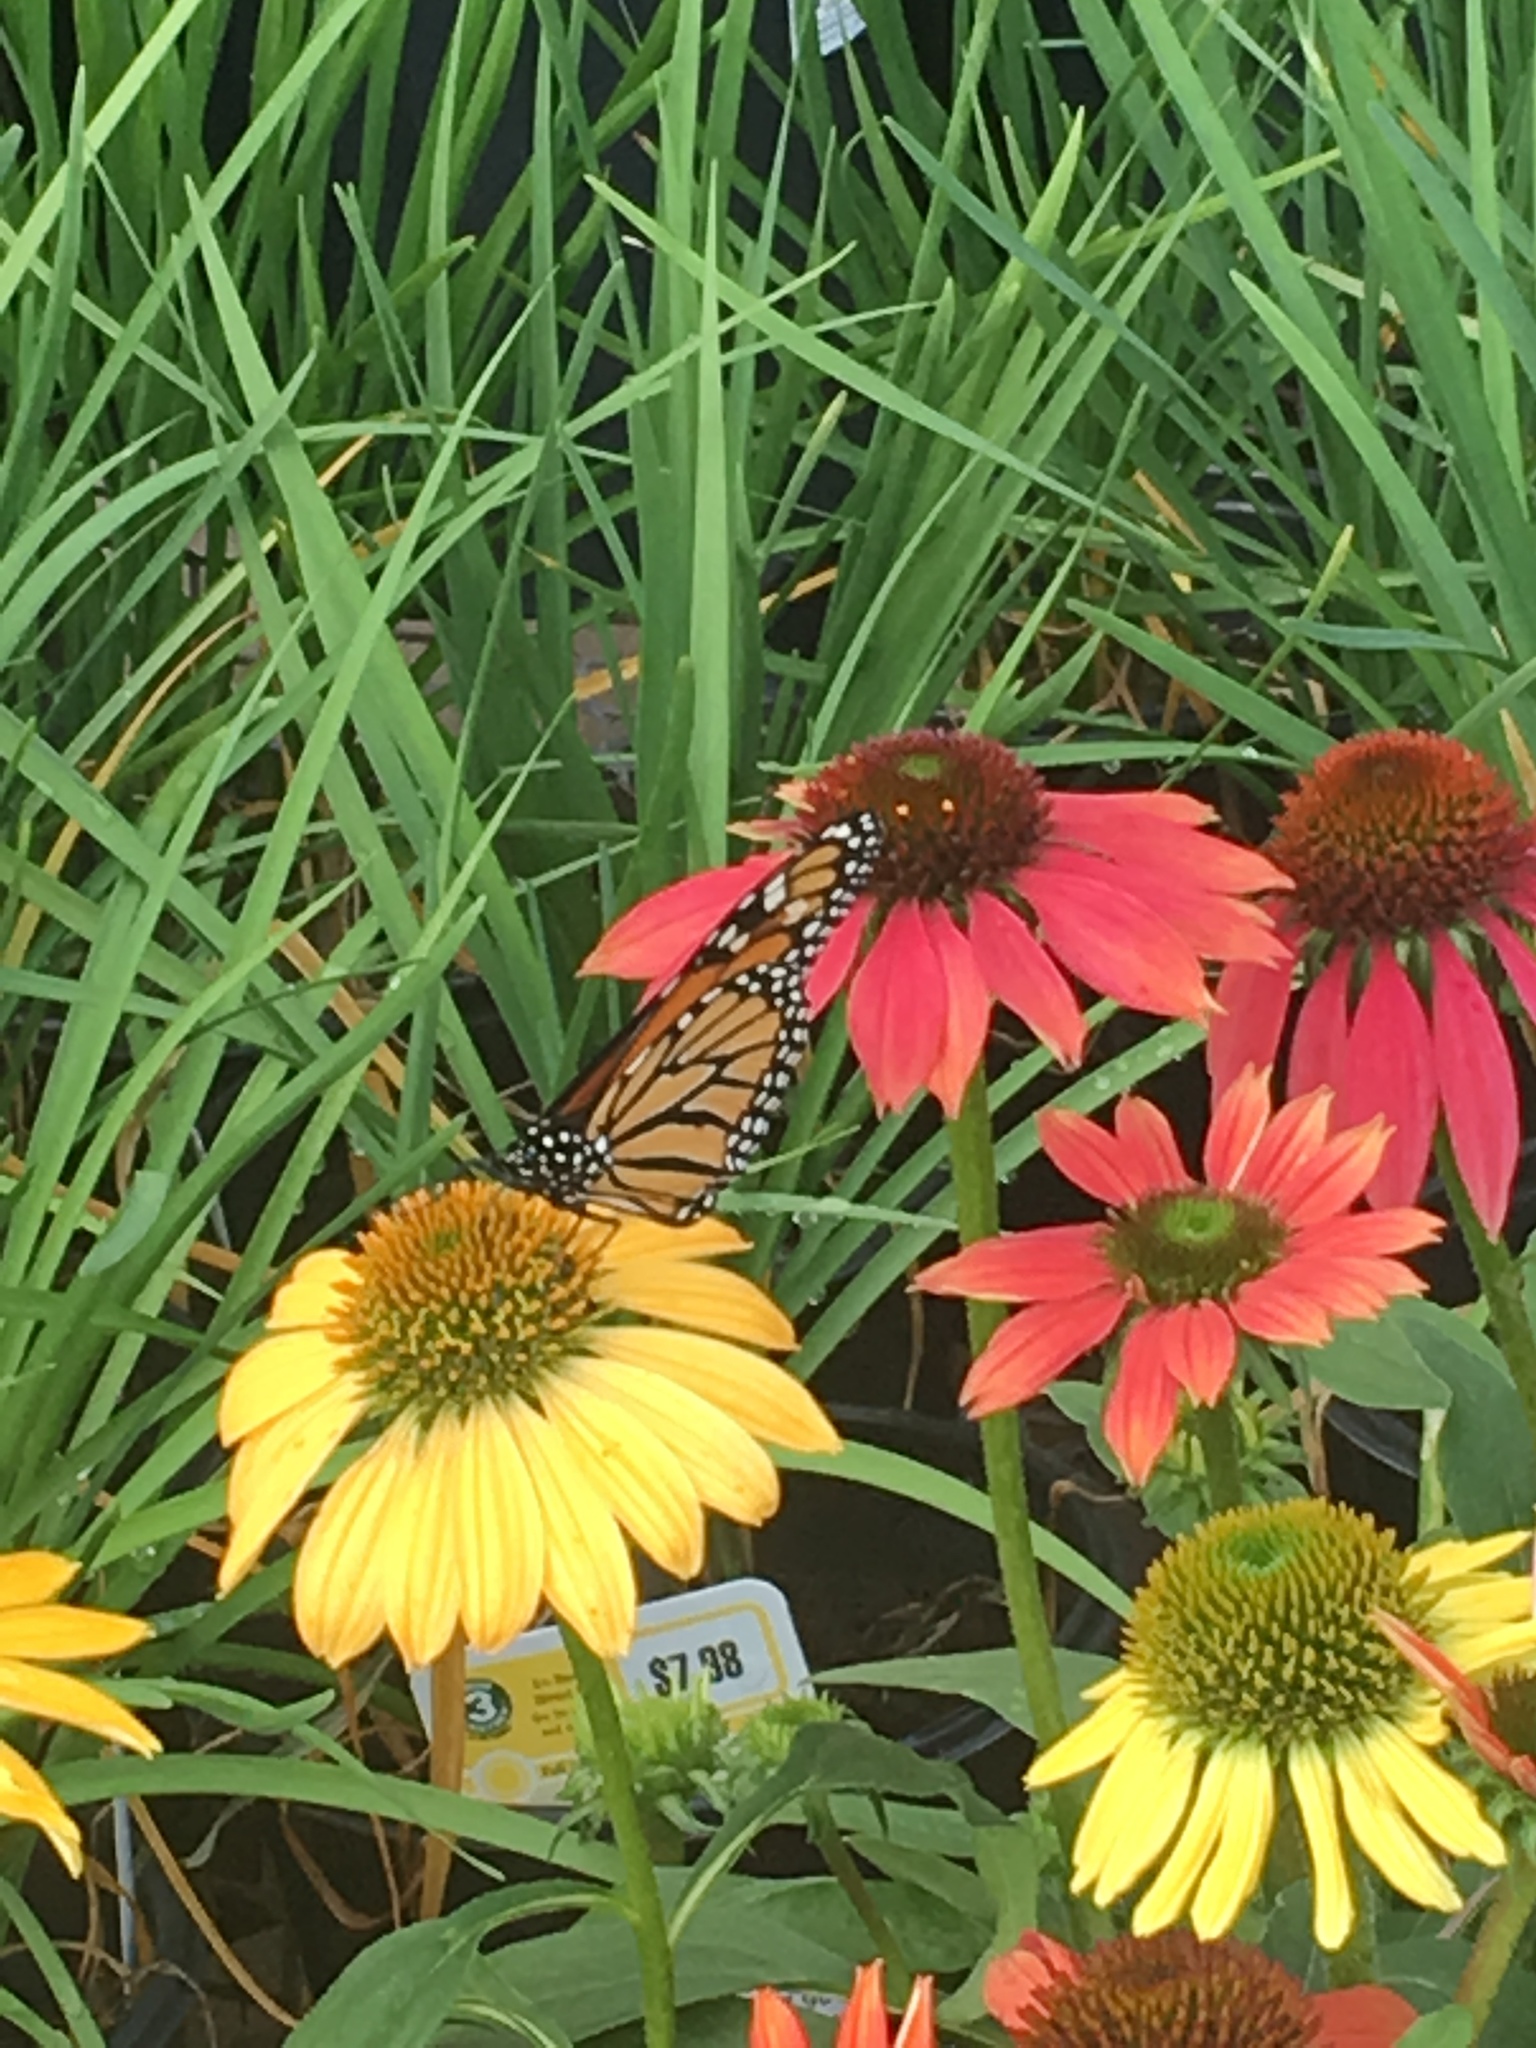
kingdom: Animalia
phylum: Arthropoda
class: Insecta
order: Lepidoptera
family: Nymphalidae
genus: Danaus
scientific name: Danaus plexippus
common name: Monarch
